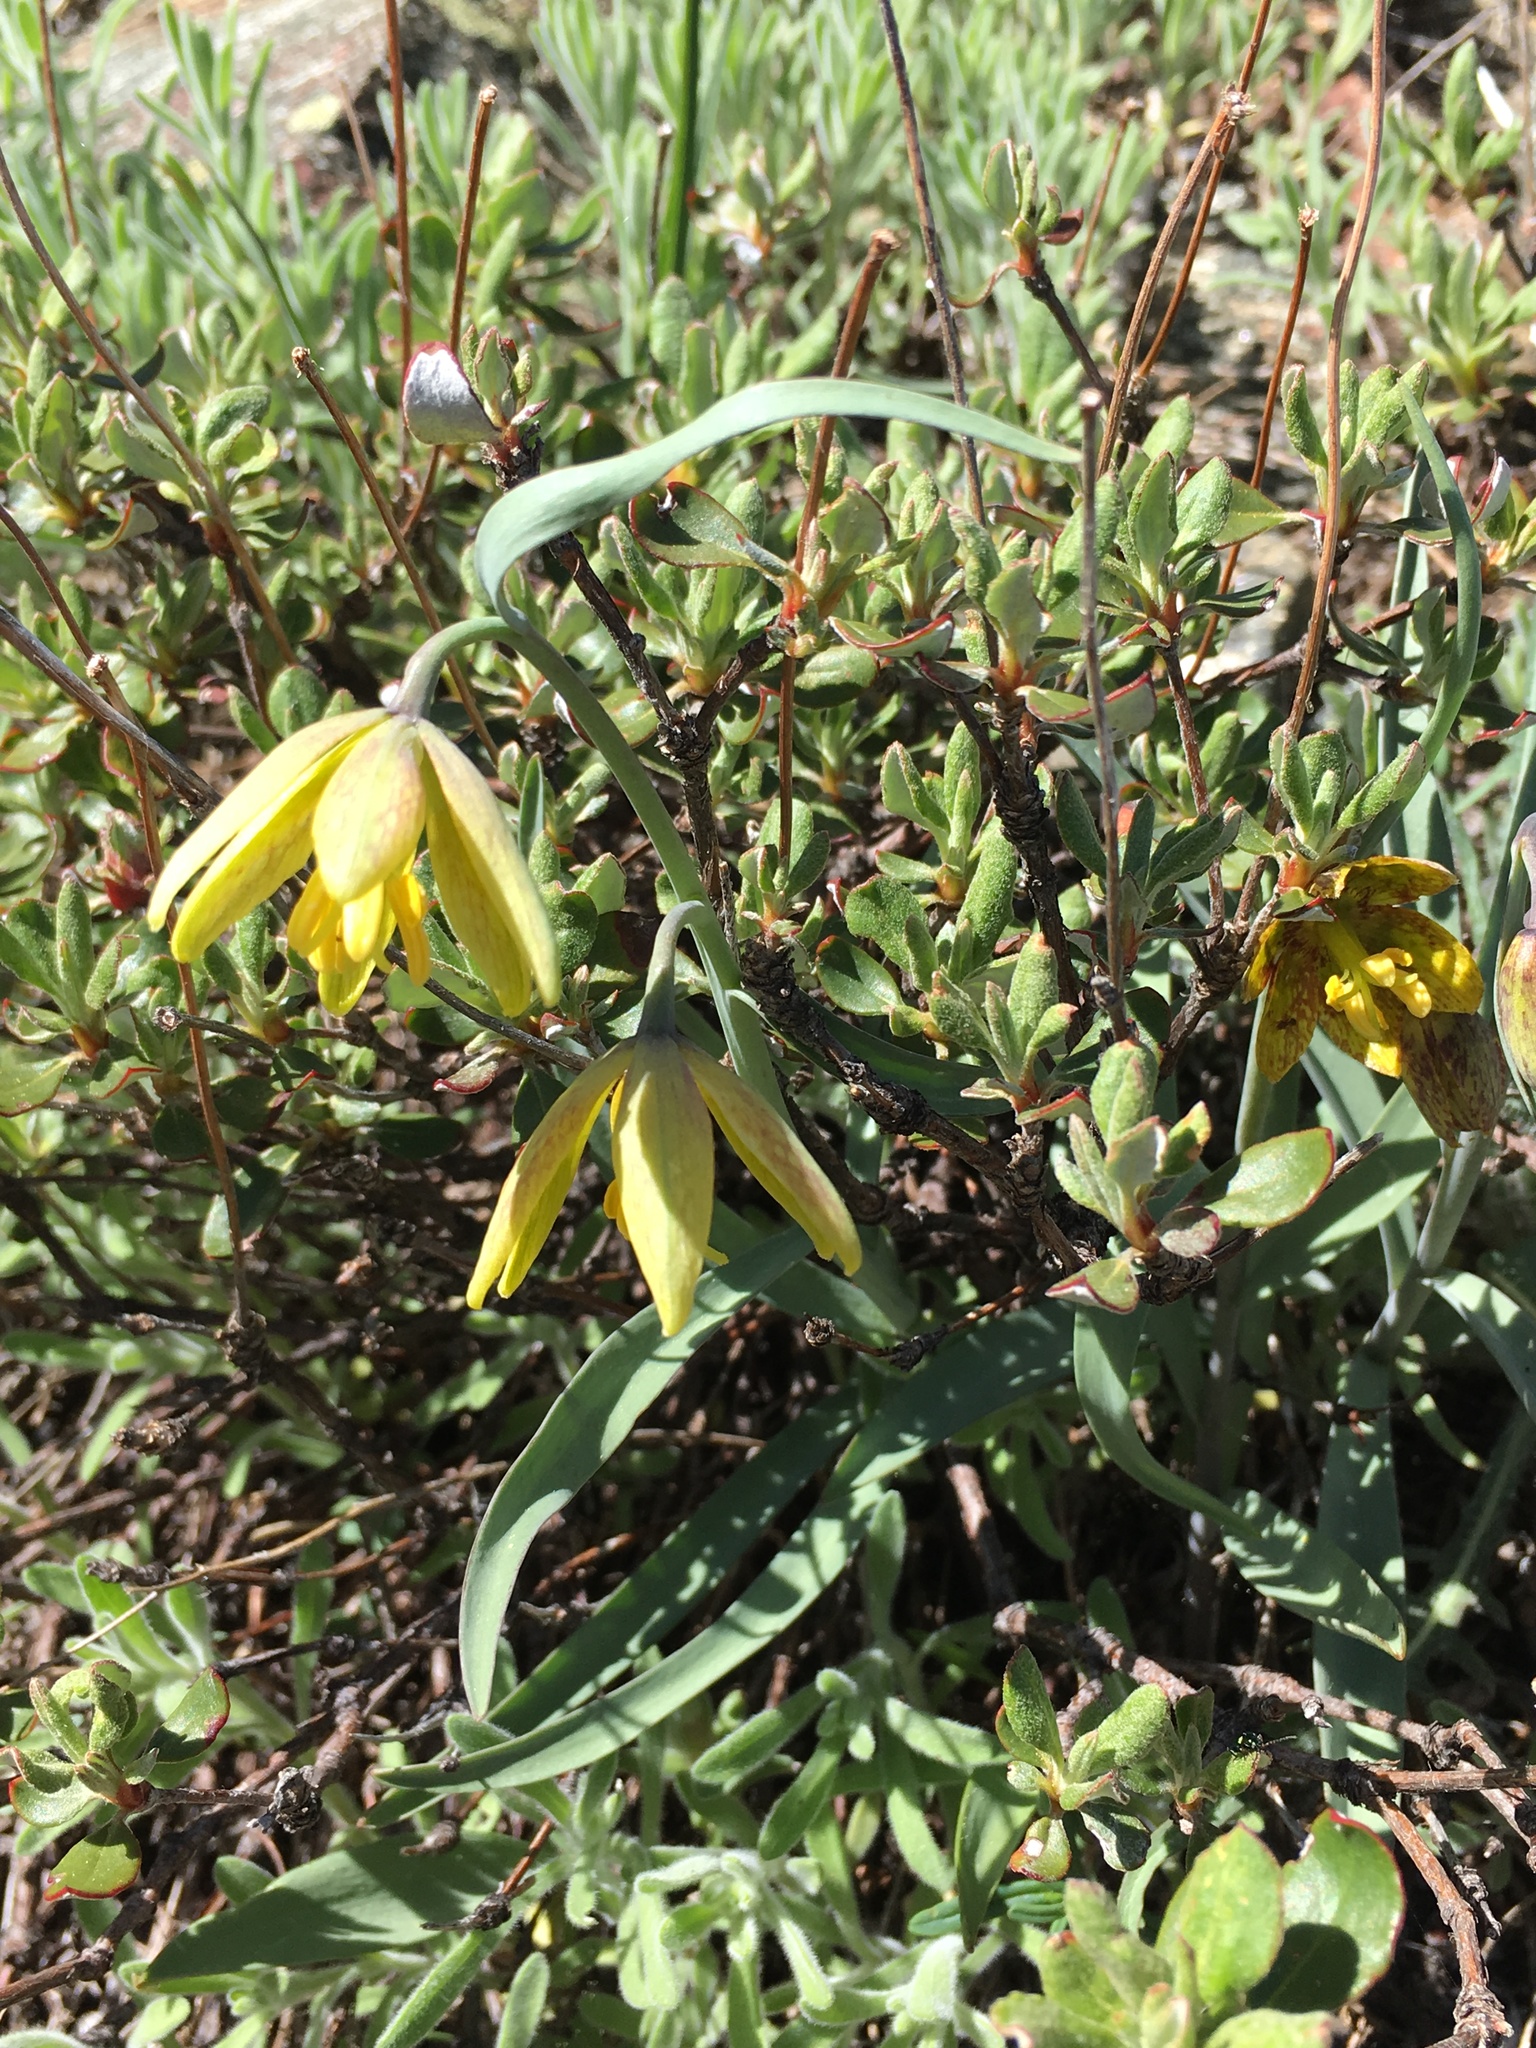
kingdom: Plantae
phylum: Tracheophyta
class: Liliopsida
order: Liliales
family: Liliaceae
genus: Fritillaria
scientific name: Fritillaria glauca
